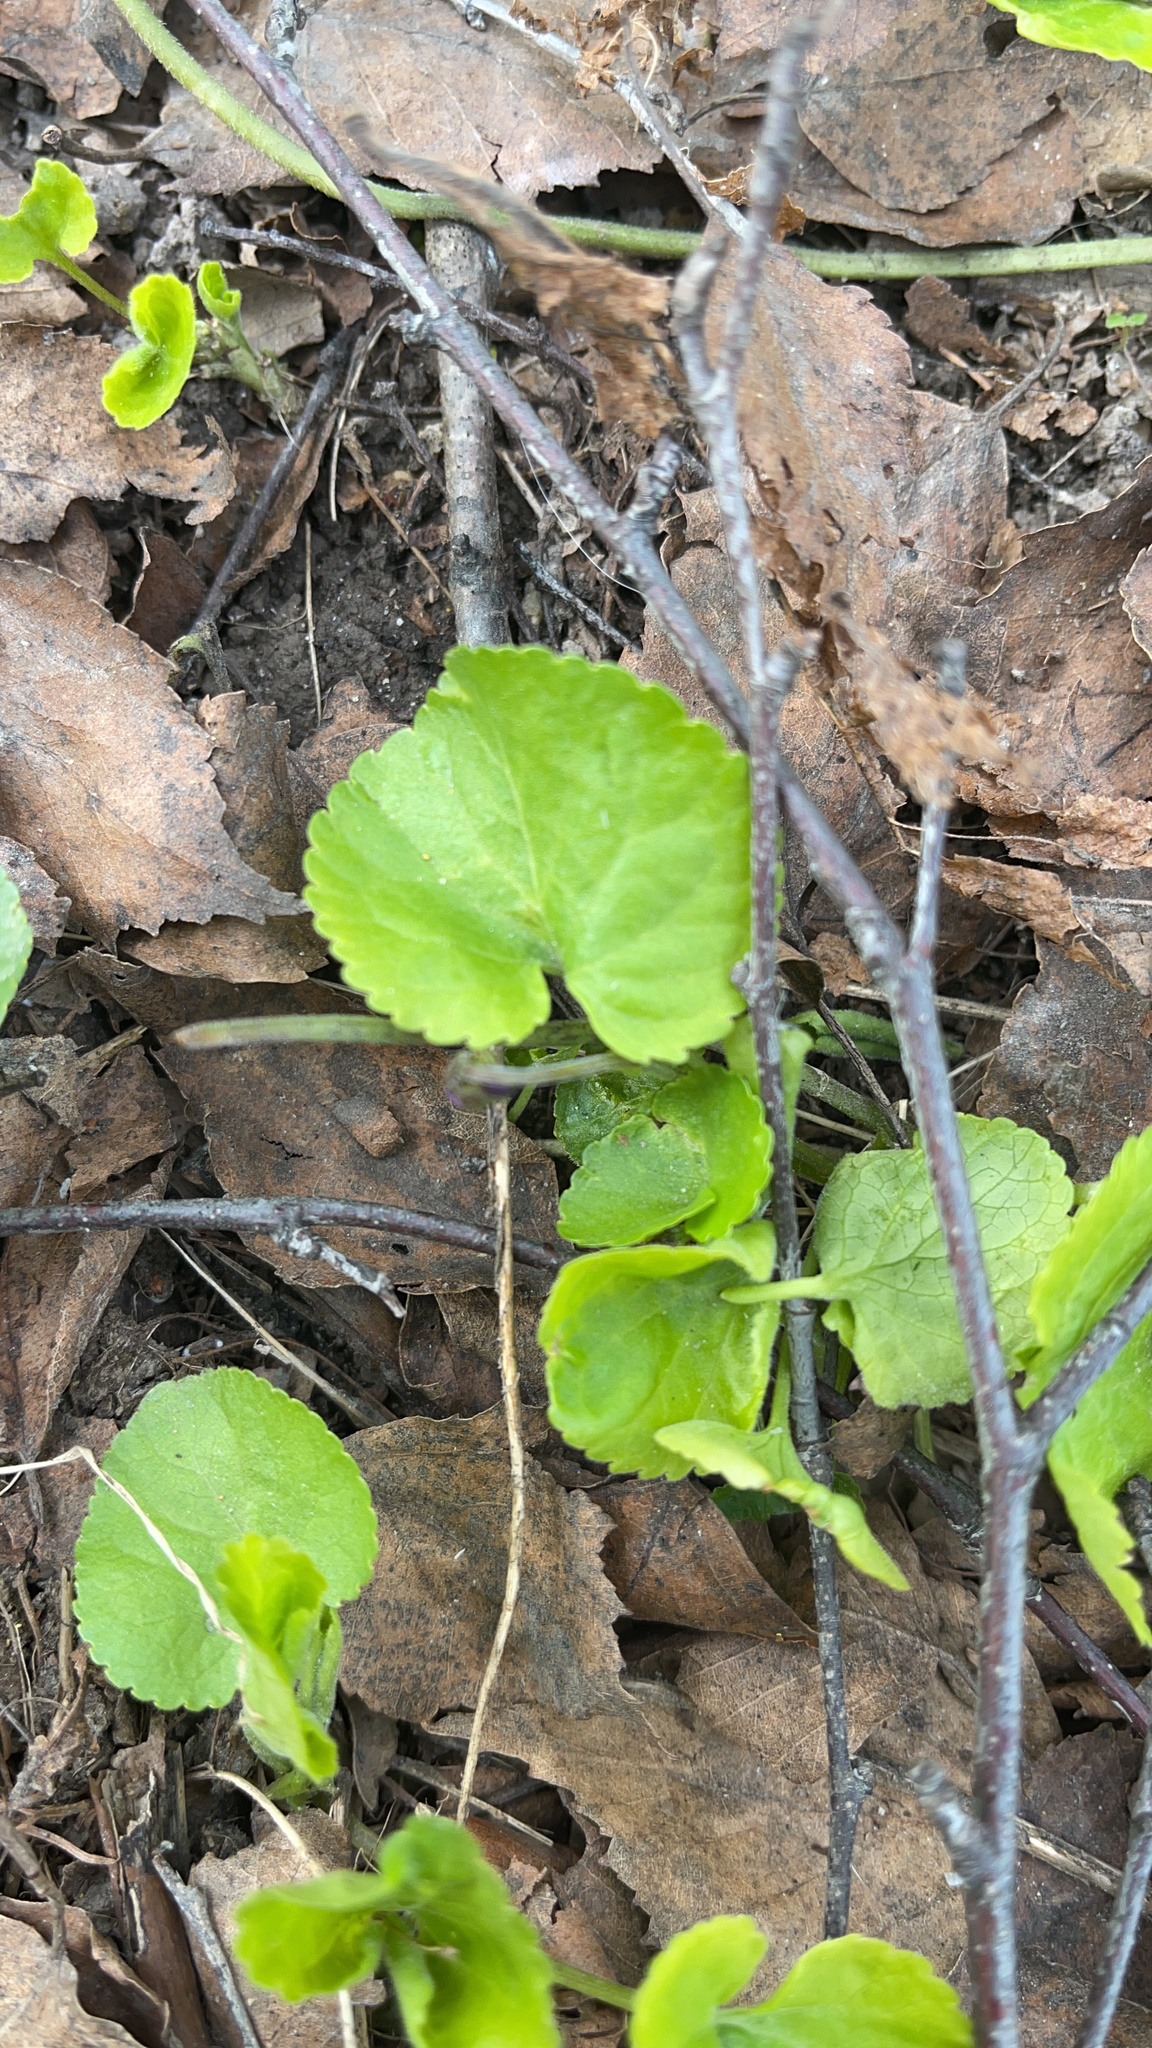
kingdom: Plantae
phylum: Tracheophyta
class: Magnoliopsida
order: Malpighiales
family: Violaceae
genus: Viola
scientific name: Viola odorata
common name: Sweet violet
